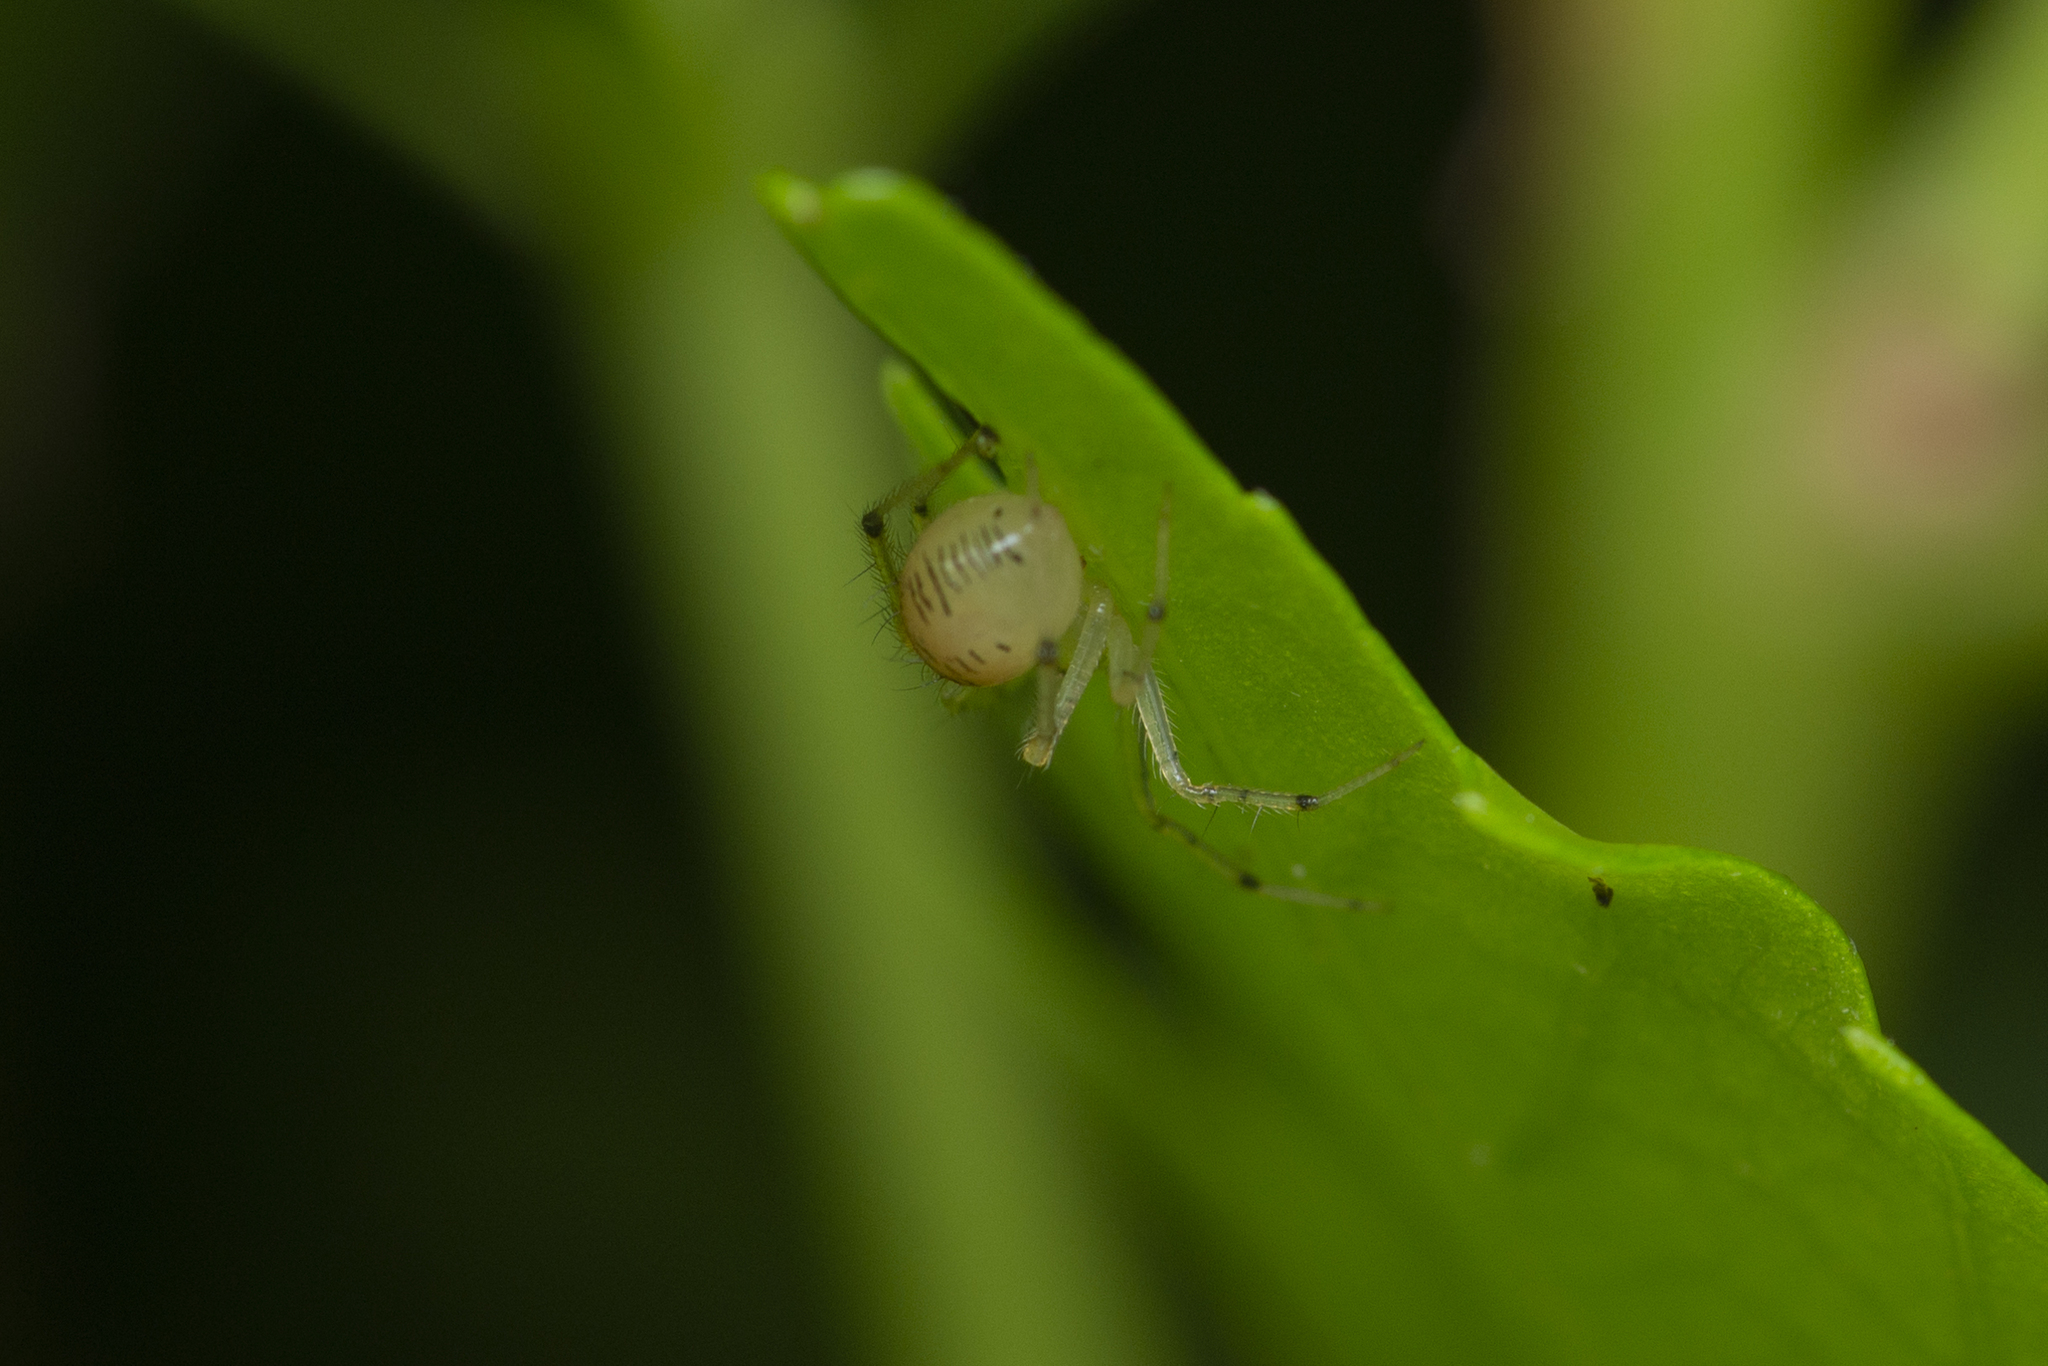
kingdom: Animalia
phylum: Arthropoda
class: Arachnida
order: Araneae
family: Theridiidae
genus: Phycosoma
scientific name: Phycosoma digitula
